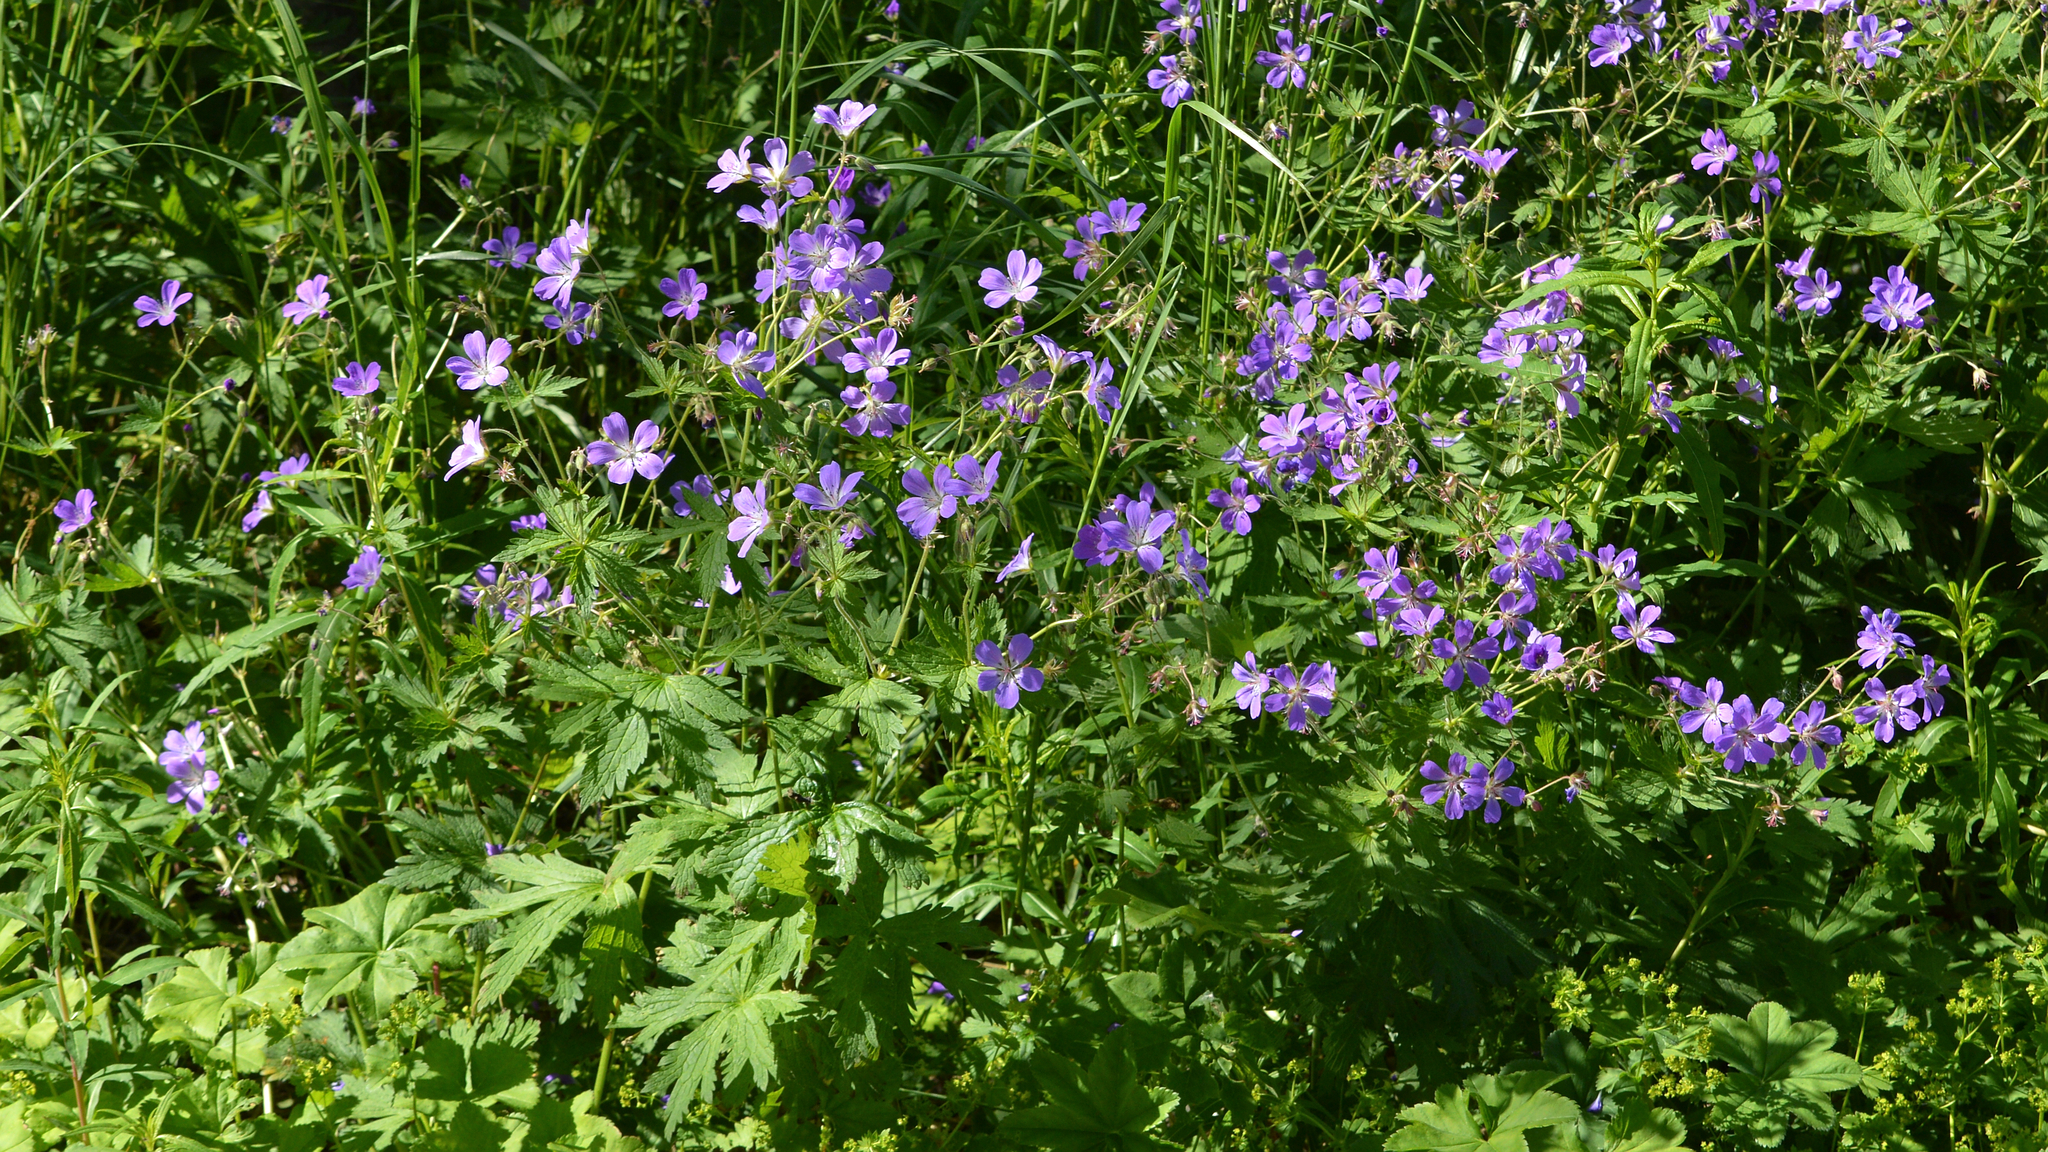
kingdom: Plantae
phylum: Tracheophyta
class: Magnoliopsida
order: Geraniales
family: Geraniaceae
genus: Geranium
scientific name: Geranium sylvaticum
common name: Wood crane's-bill
